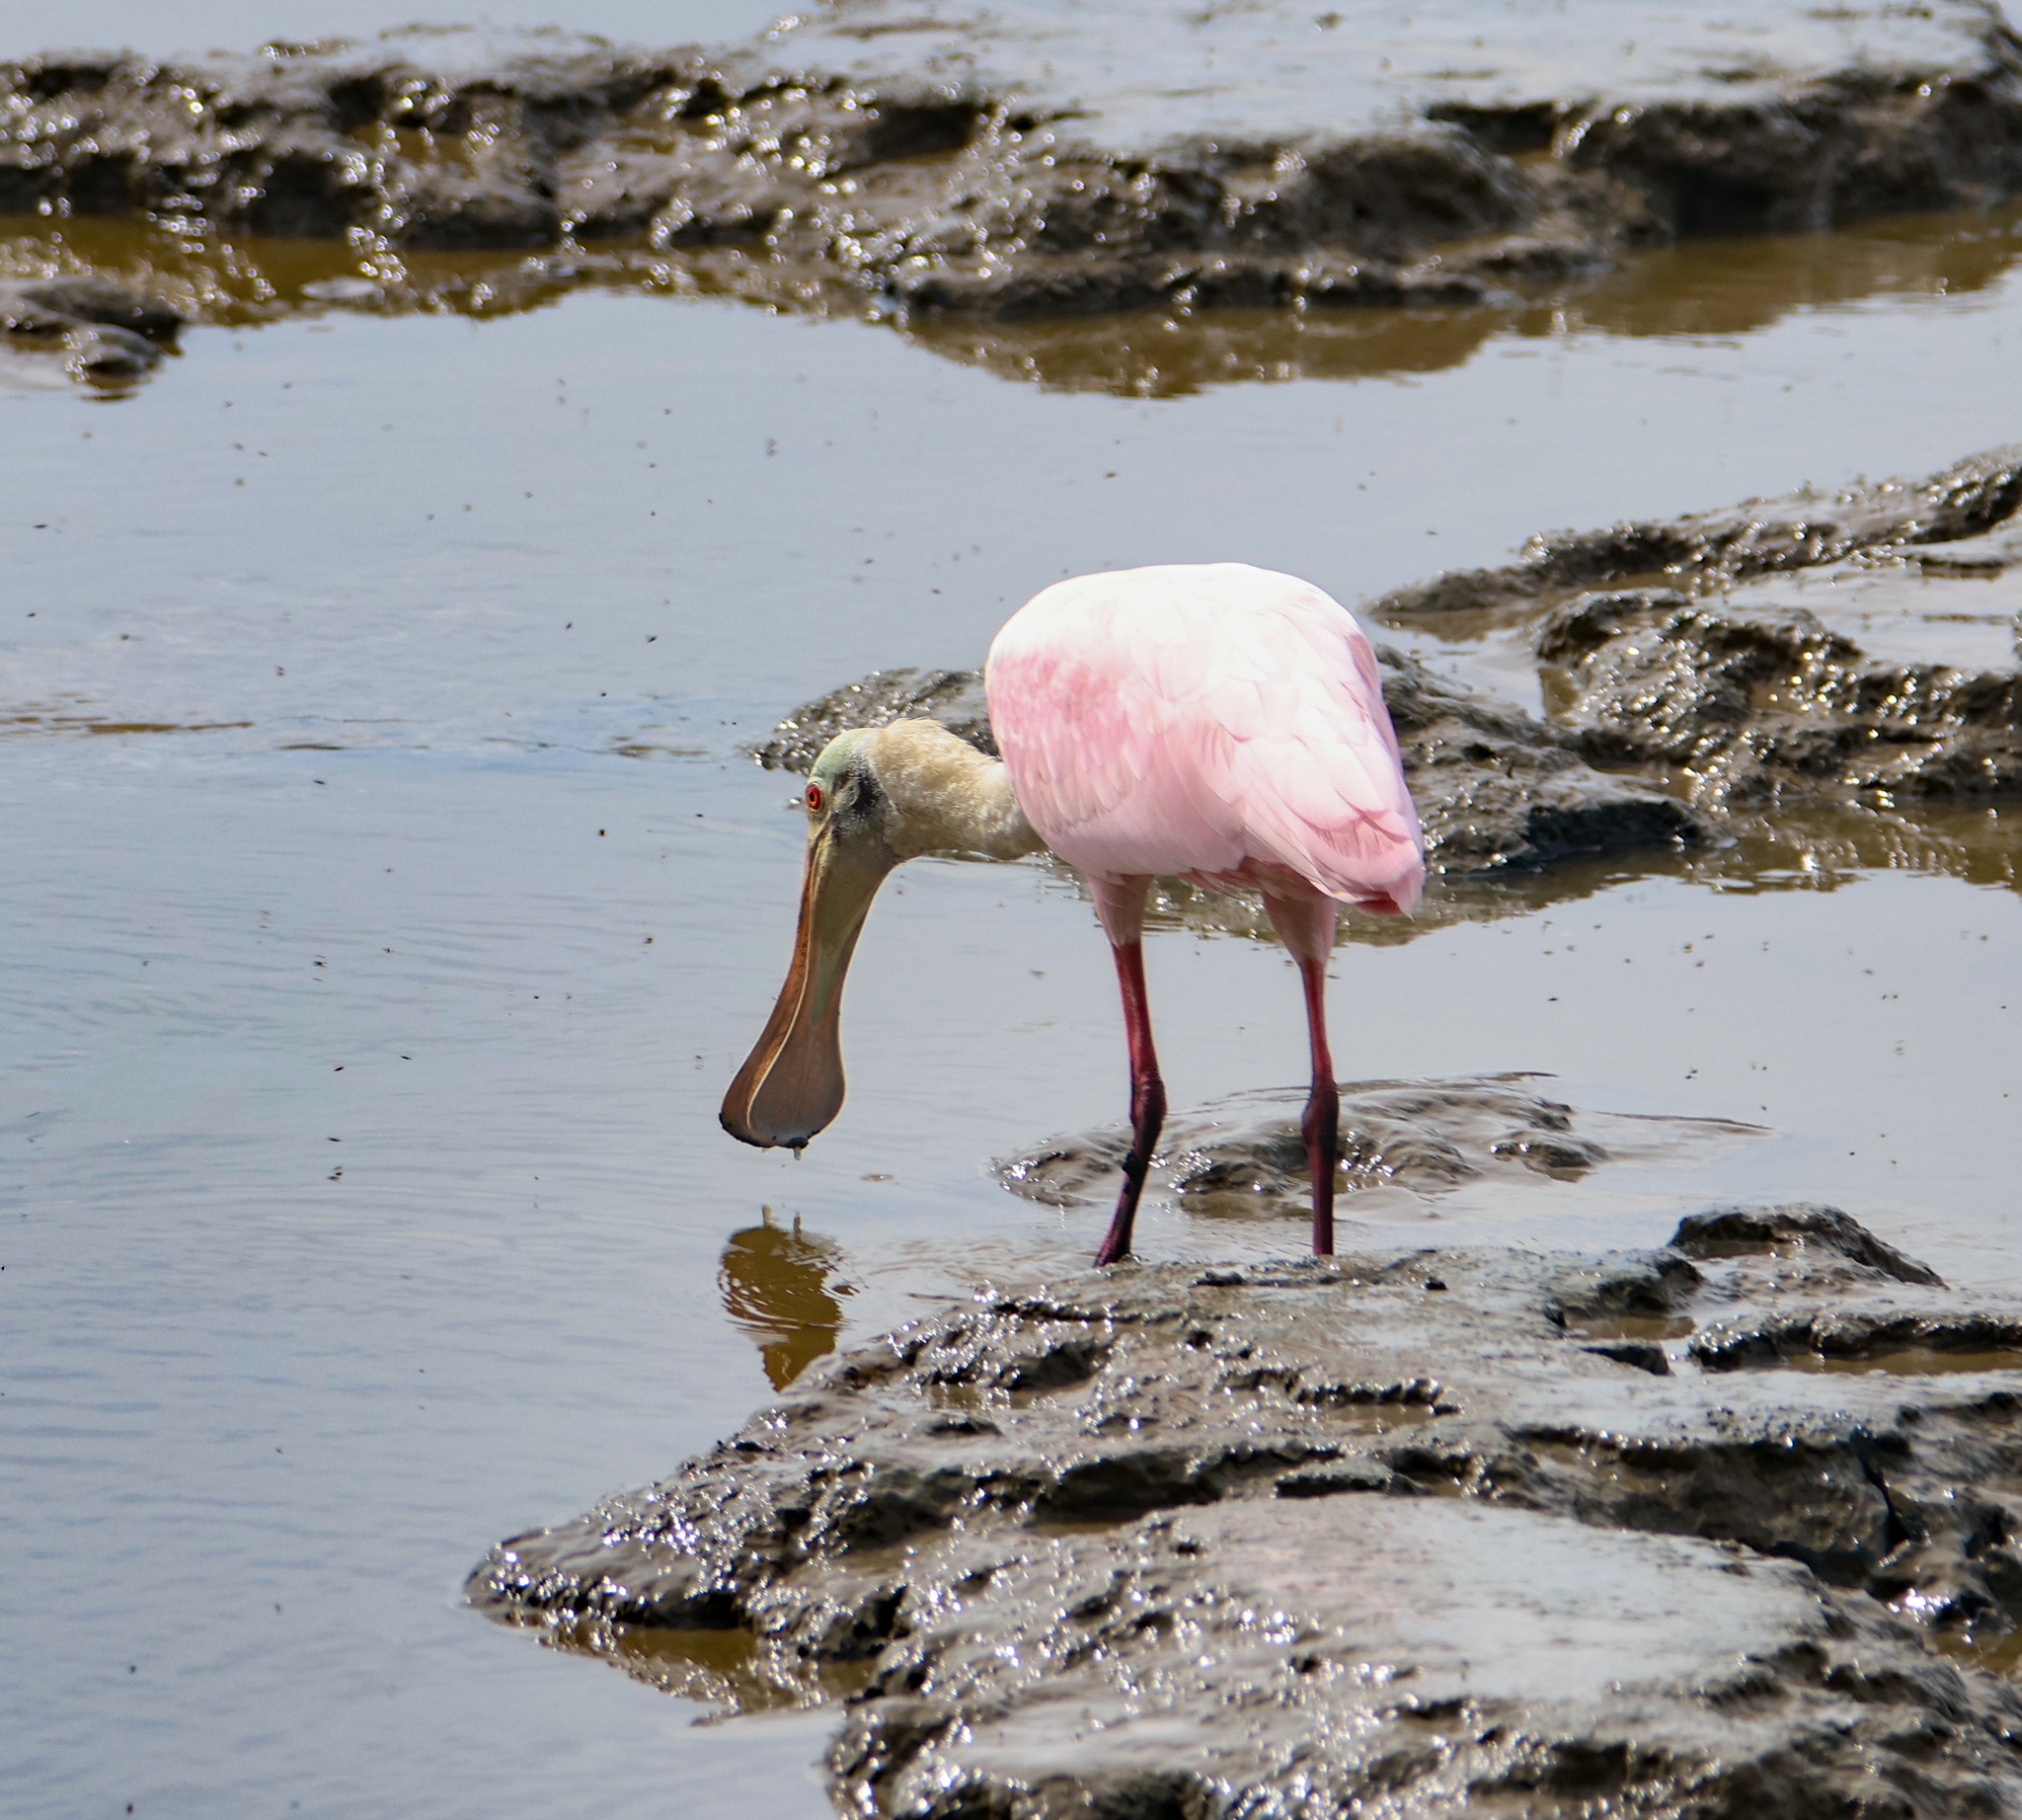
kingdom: Animalia
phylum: Chordata
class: Aves
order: Pelecaniformes
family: Threskiornithidae
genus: Platalea
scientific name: Platalea ajaja
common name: Roseate spoonbill
